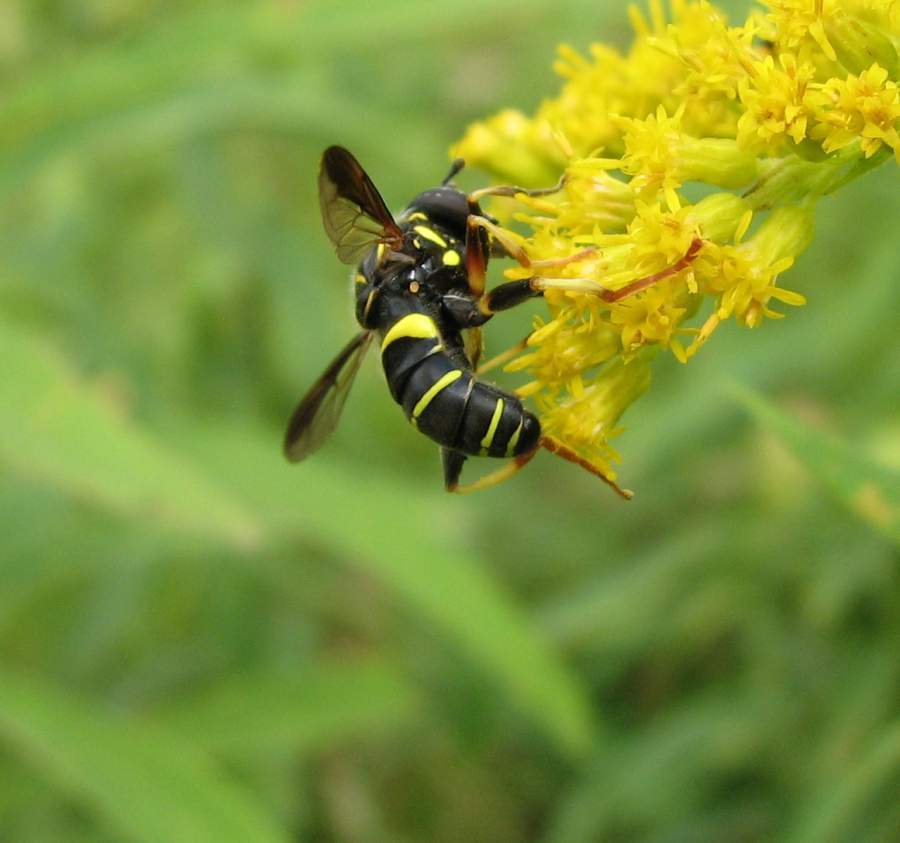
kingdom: Animalia
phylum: Arthropoda
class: Insecta
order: Diptera
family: Syrphidae
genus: Spilomyia
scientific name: Spilomyia sayi
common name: Four-lined hornet fly
